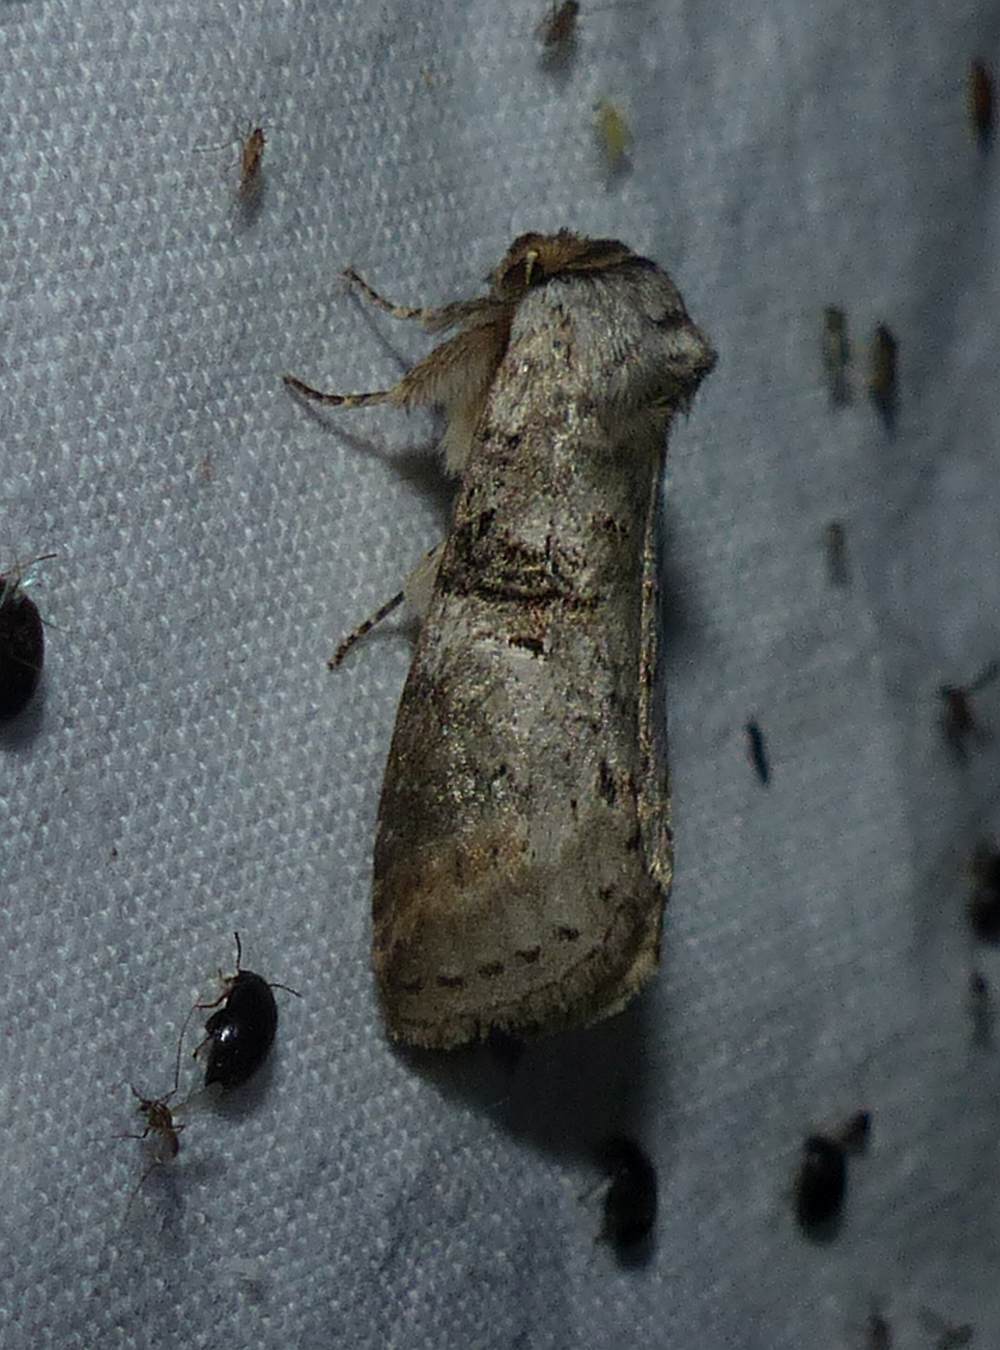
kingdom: Animalia
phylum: Arthropoda
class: Insecta
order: Lepidoptera
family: Notodontidae
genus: Ellida
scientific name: Ellida caniplaga
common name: Linden prominent
